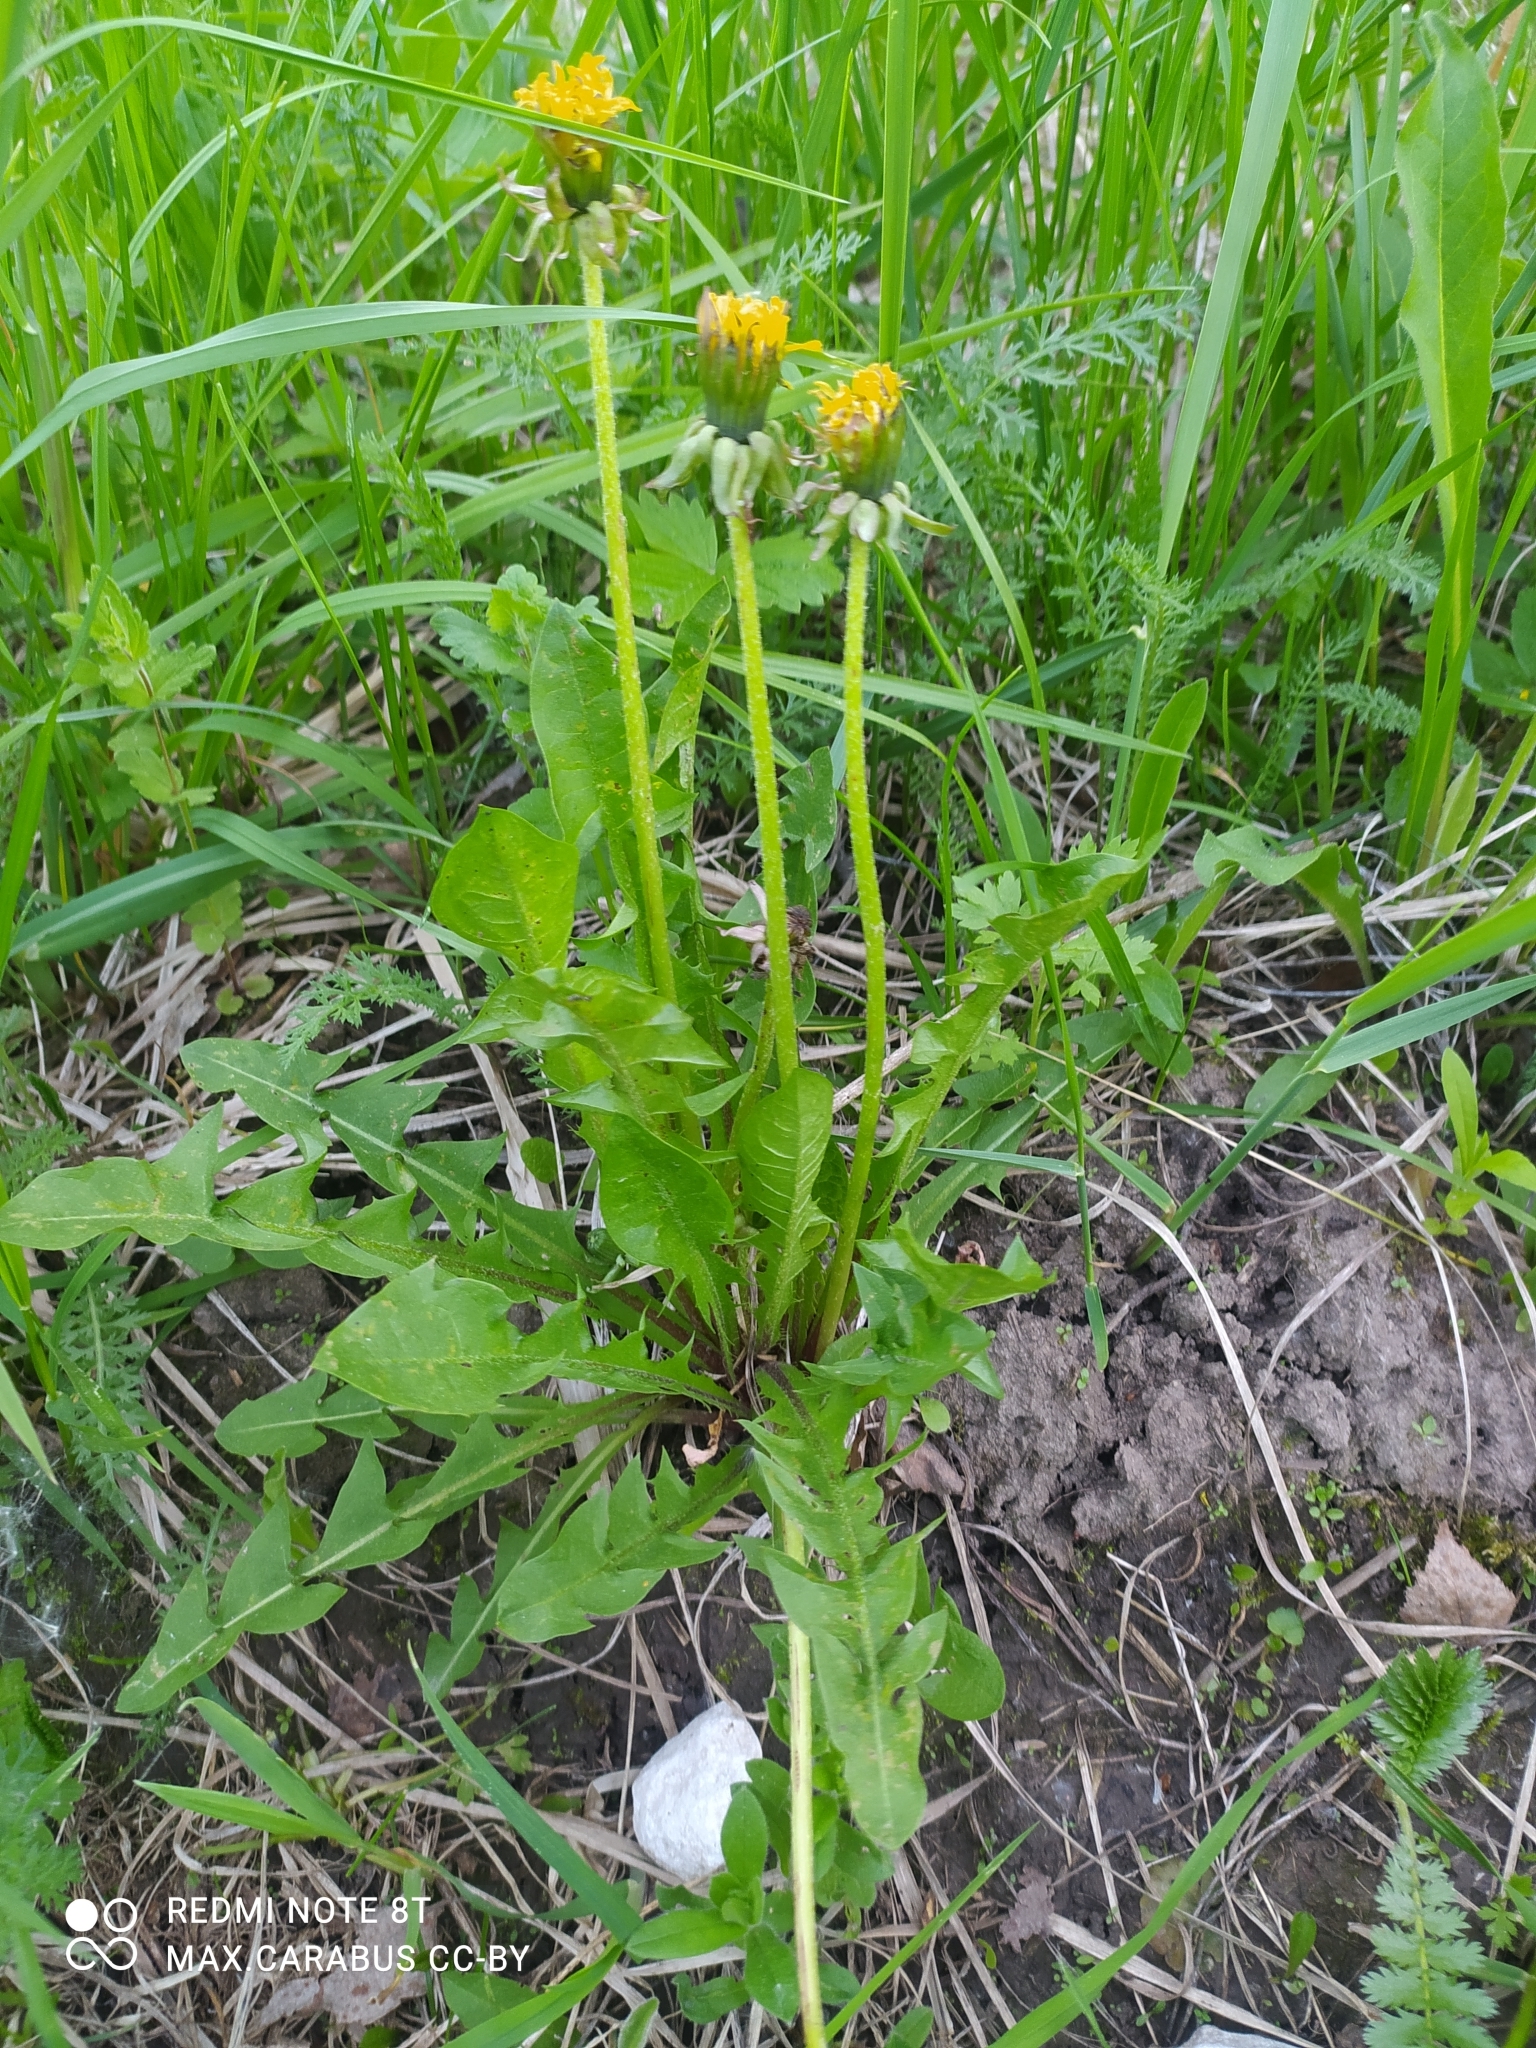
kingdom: Plantae
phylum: Tracheophyta
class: Magnoliopsida
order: Asterales
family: Asteraceae
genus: Taraxacum
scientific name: Taraxacum officinale
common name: Common dandelion
